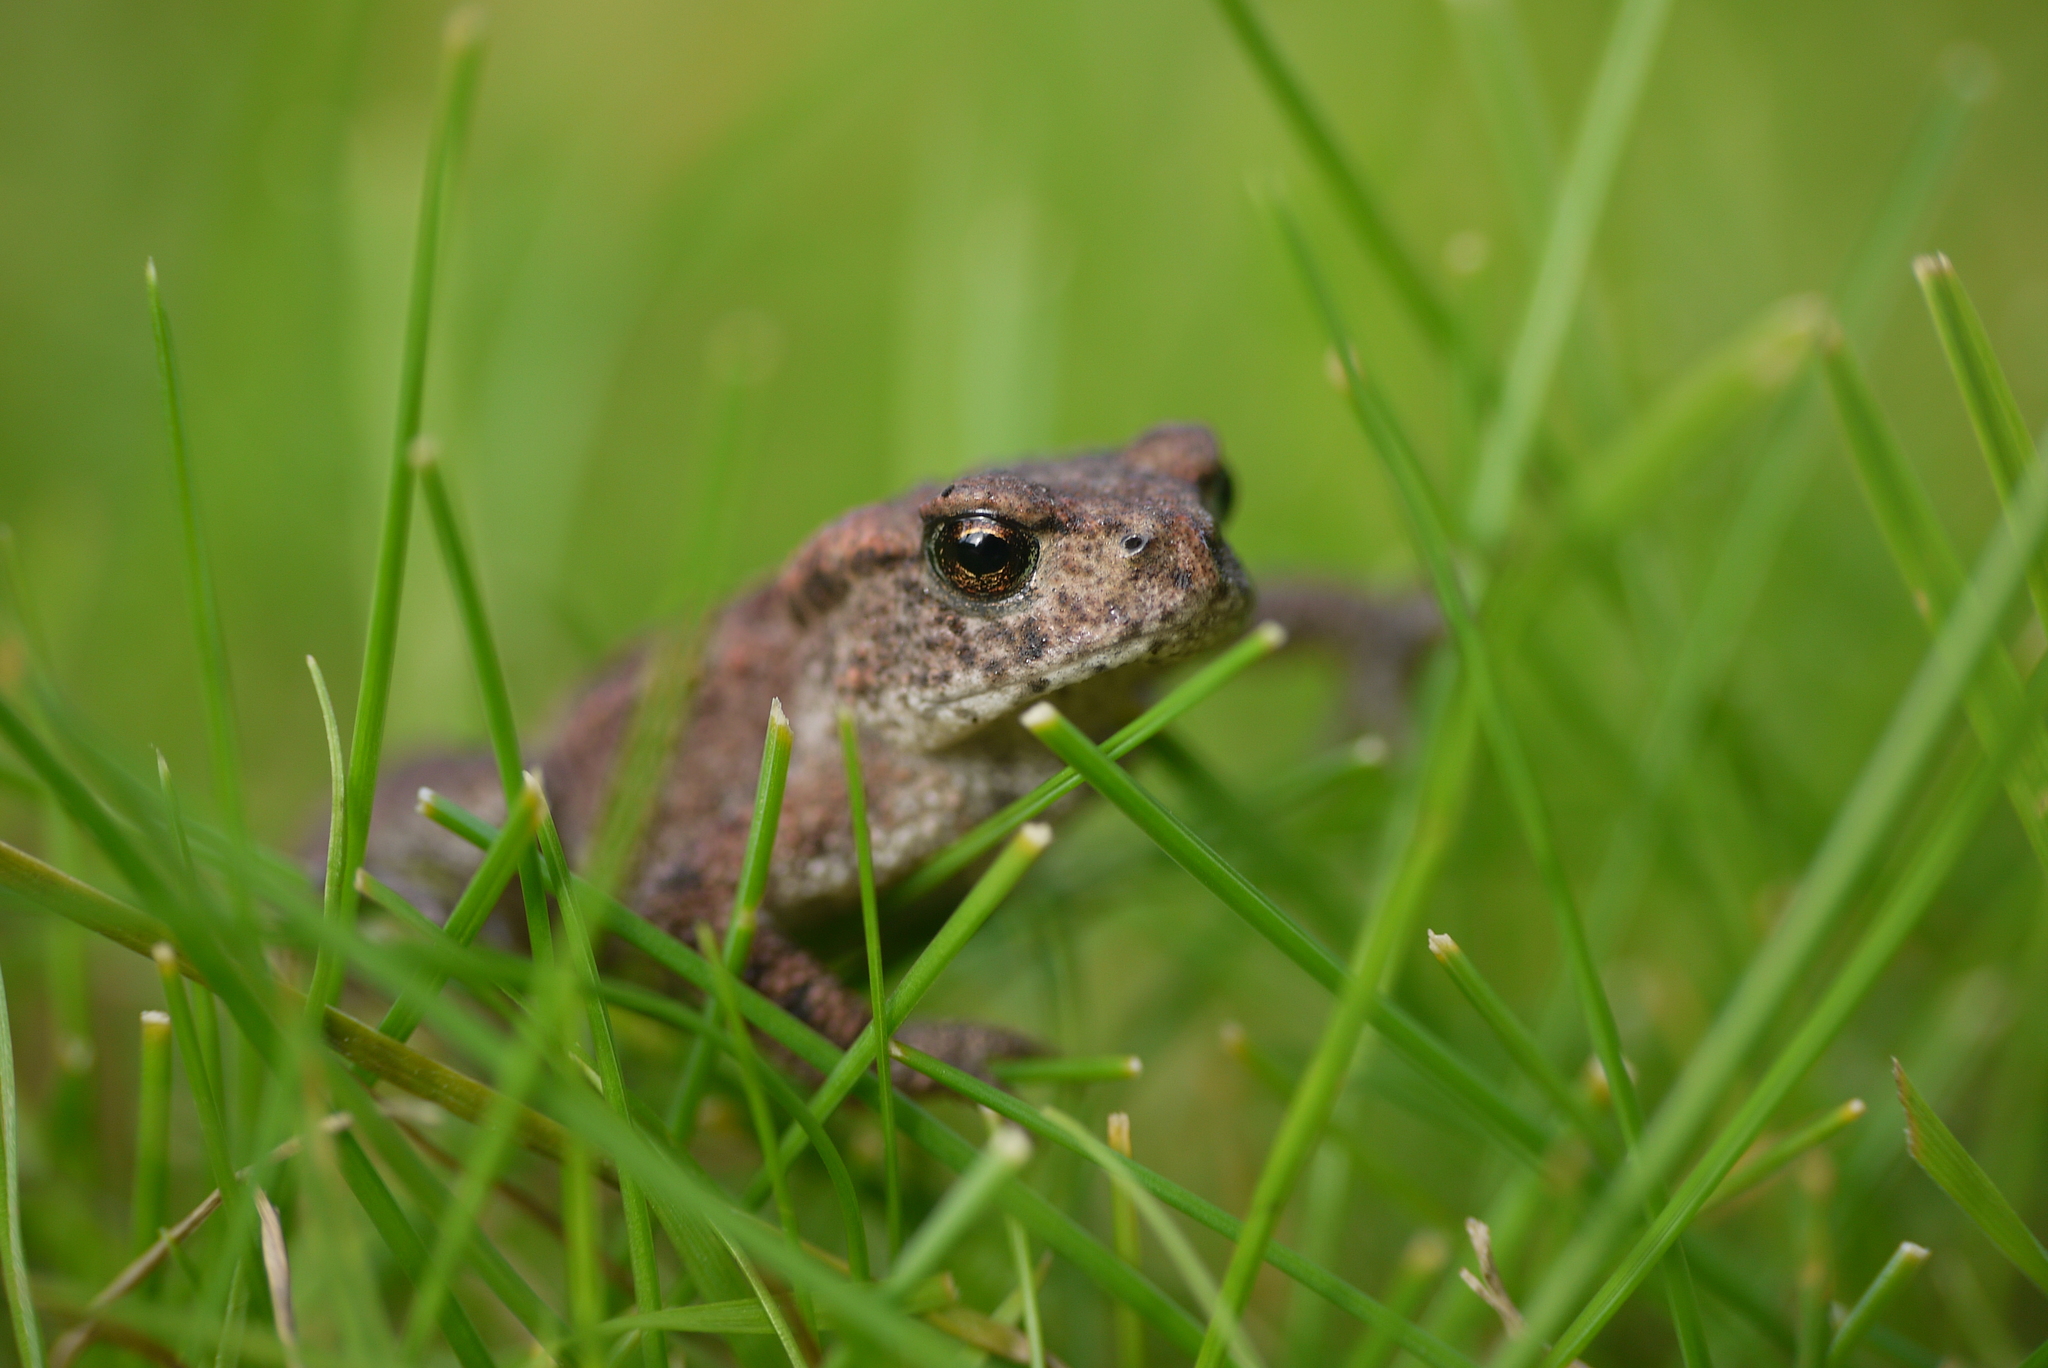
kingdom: Animalia
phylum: Chordata
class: Amphibia
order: Anura
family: Bufonidae
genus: Bufo
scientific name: Bufo bufo
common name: Common toad
